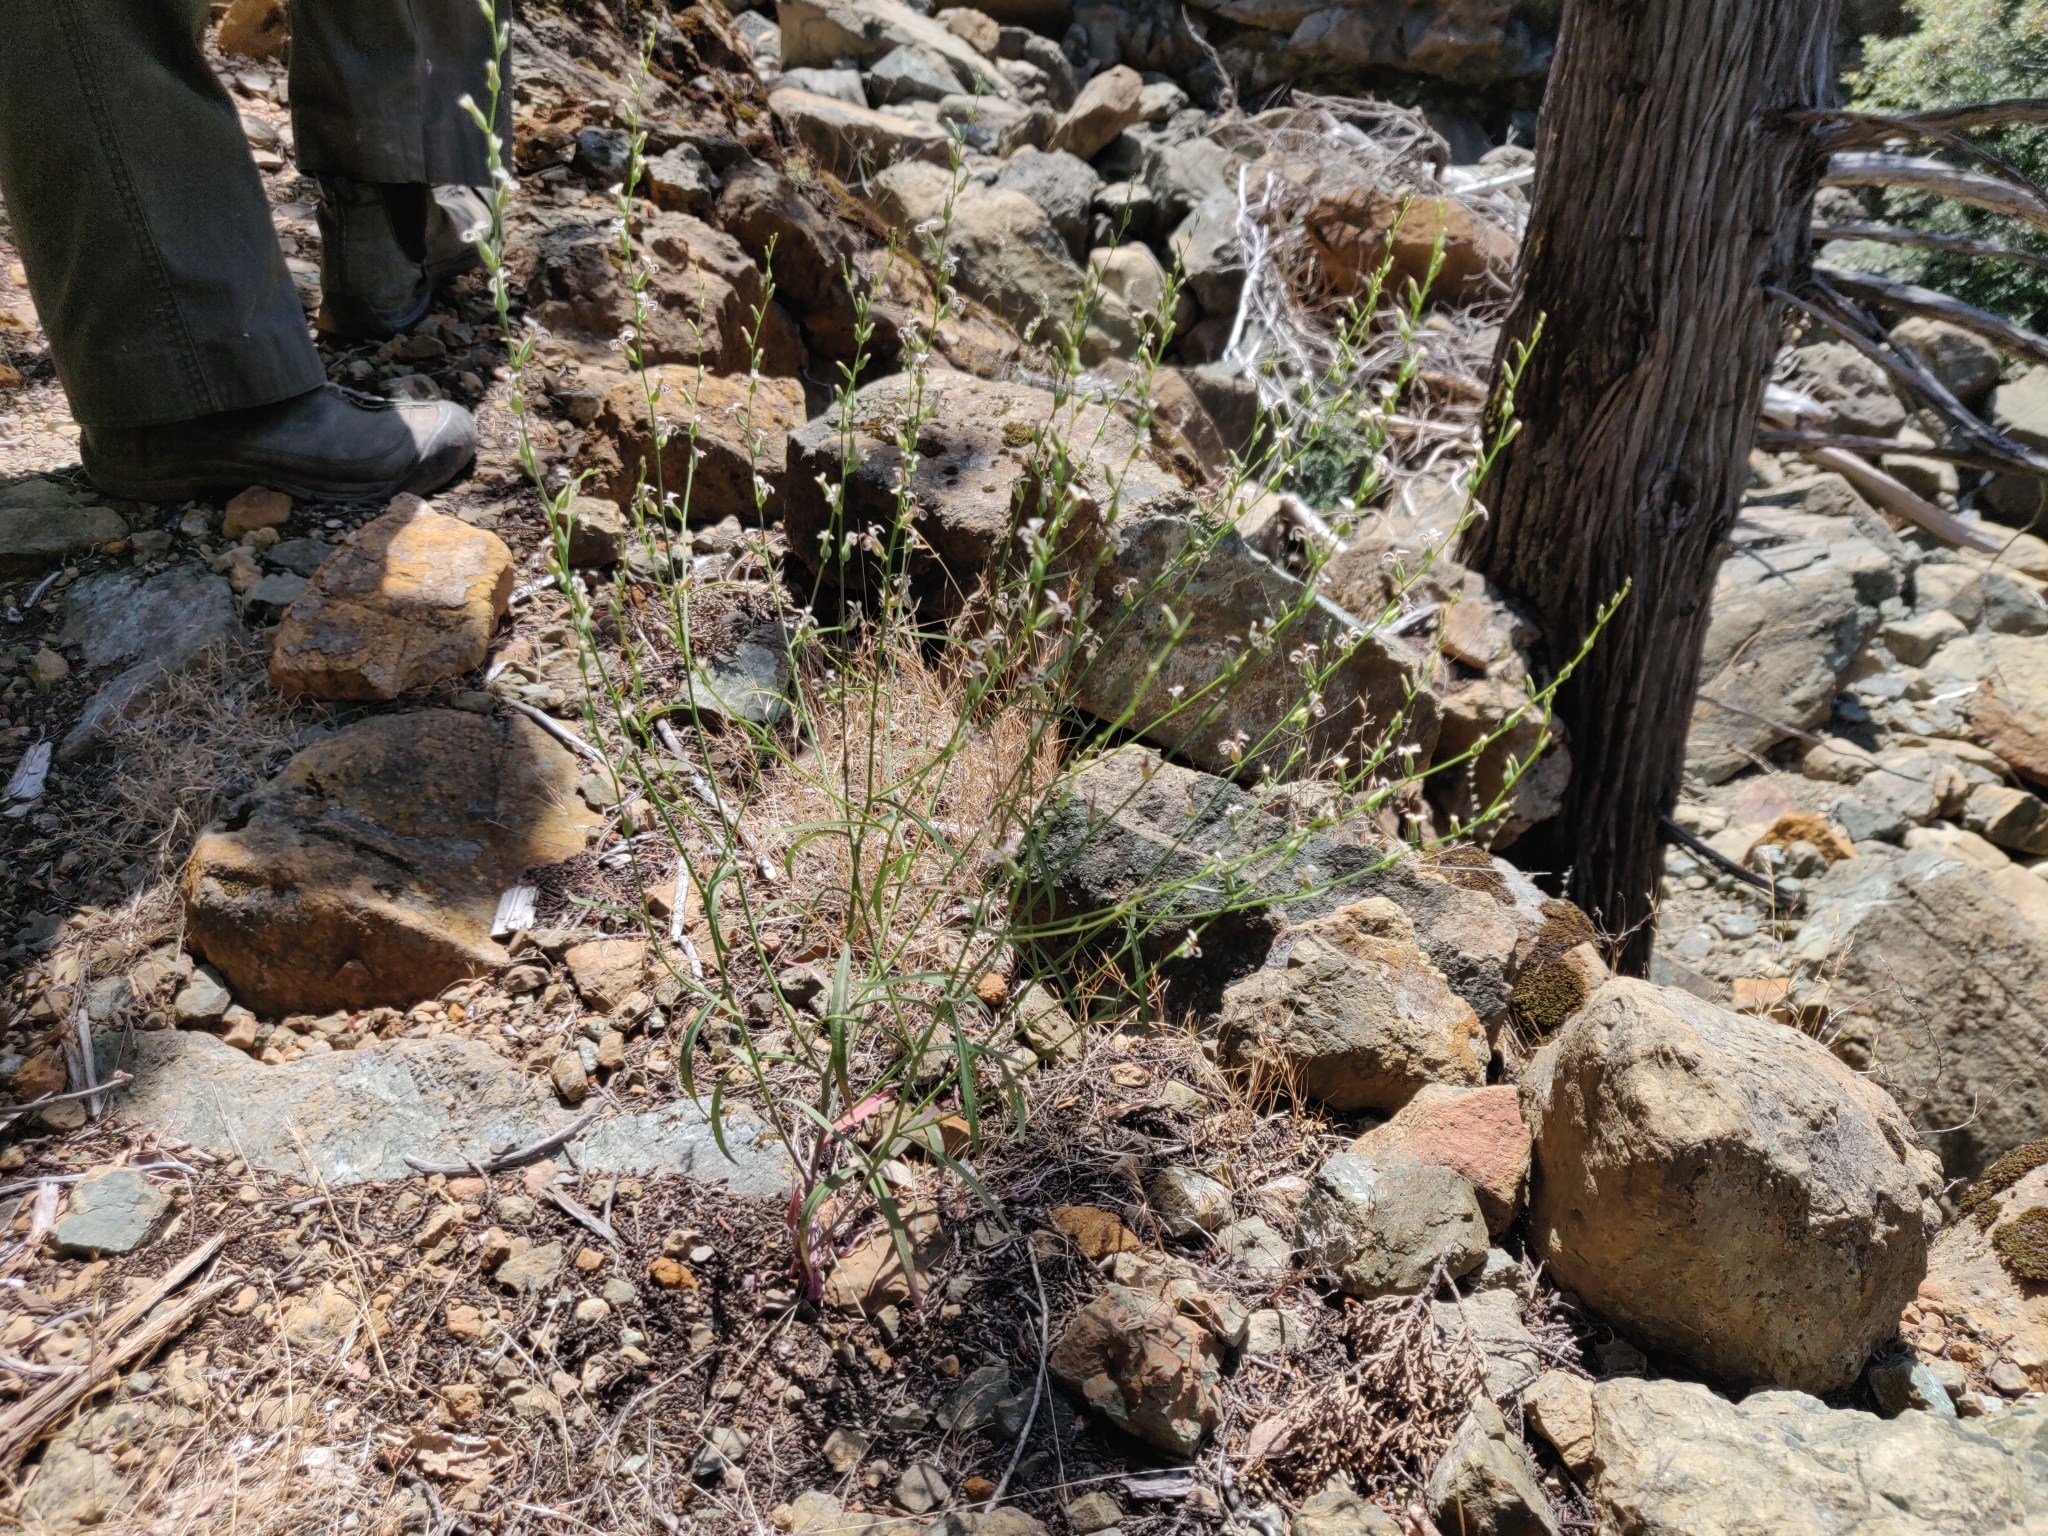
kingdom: Plantae
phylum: Tracheophyta
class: Magnoliopsida
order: Brassicales
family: Brassicaceae
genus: Streptanthus
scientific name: Streptanthus barbiger
